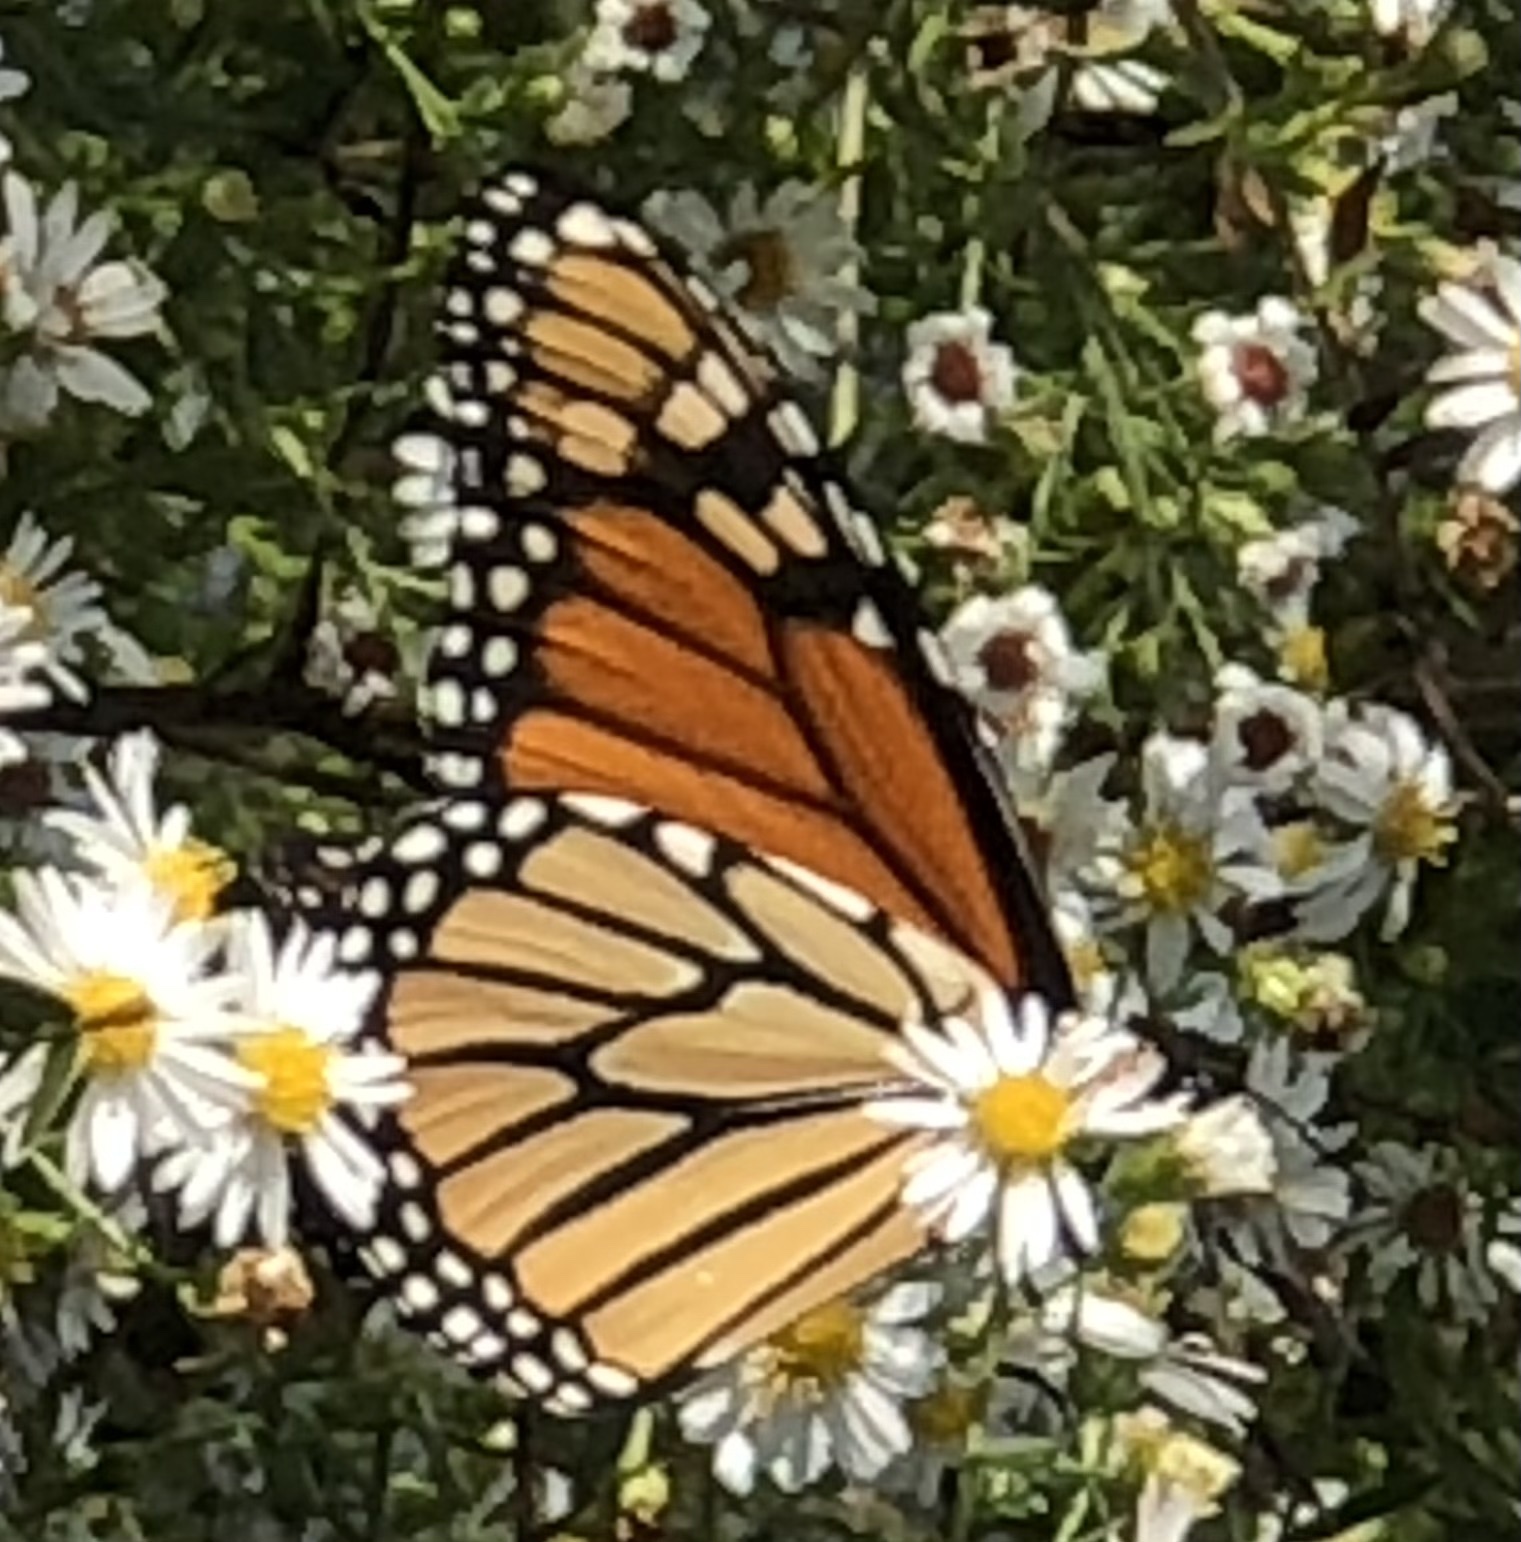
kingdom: Animalia
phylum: Arthropoda
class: Insecta
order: Lepidoptera
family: Nymphalidae
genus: Danaus
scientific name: Danaus plexippus
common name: Monarch
